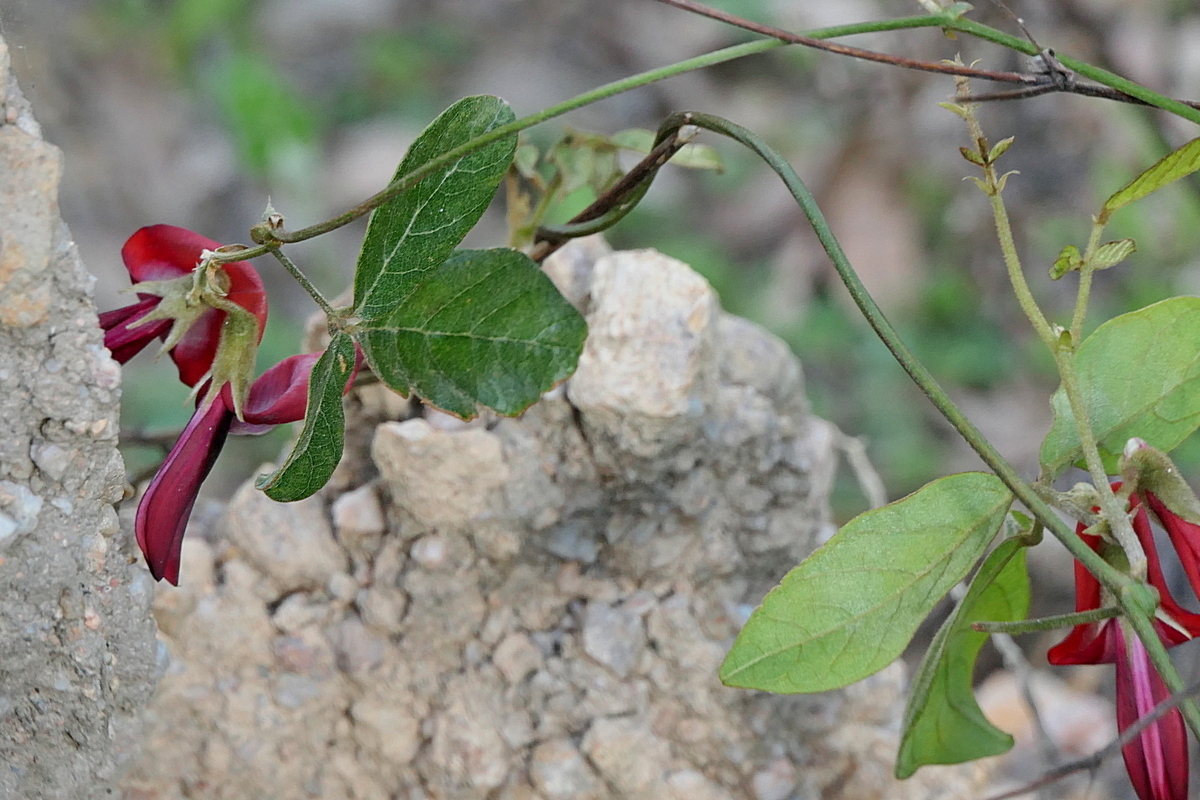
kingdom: Plantae
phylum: Tracheophyta
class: Magnoliopsida
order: Fabales
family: Fabaceae
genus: Kennedia
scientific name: Kennedia rubicunda
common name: Red kennedy-pea
